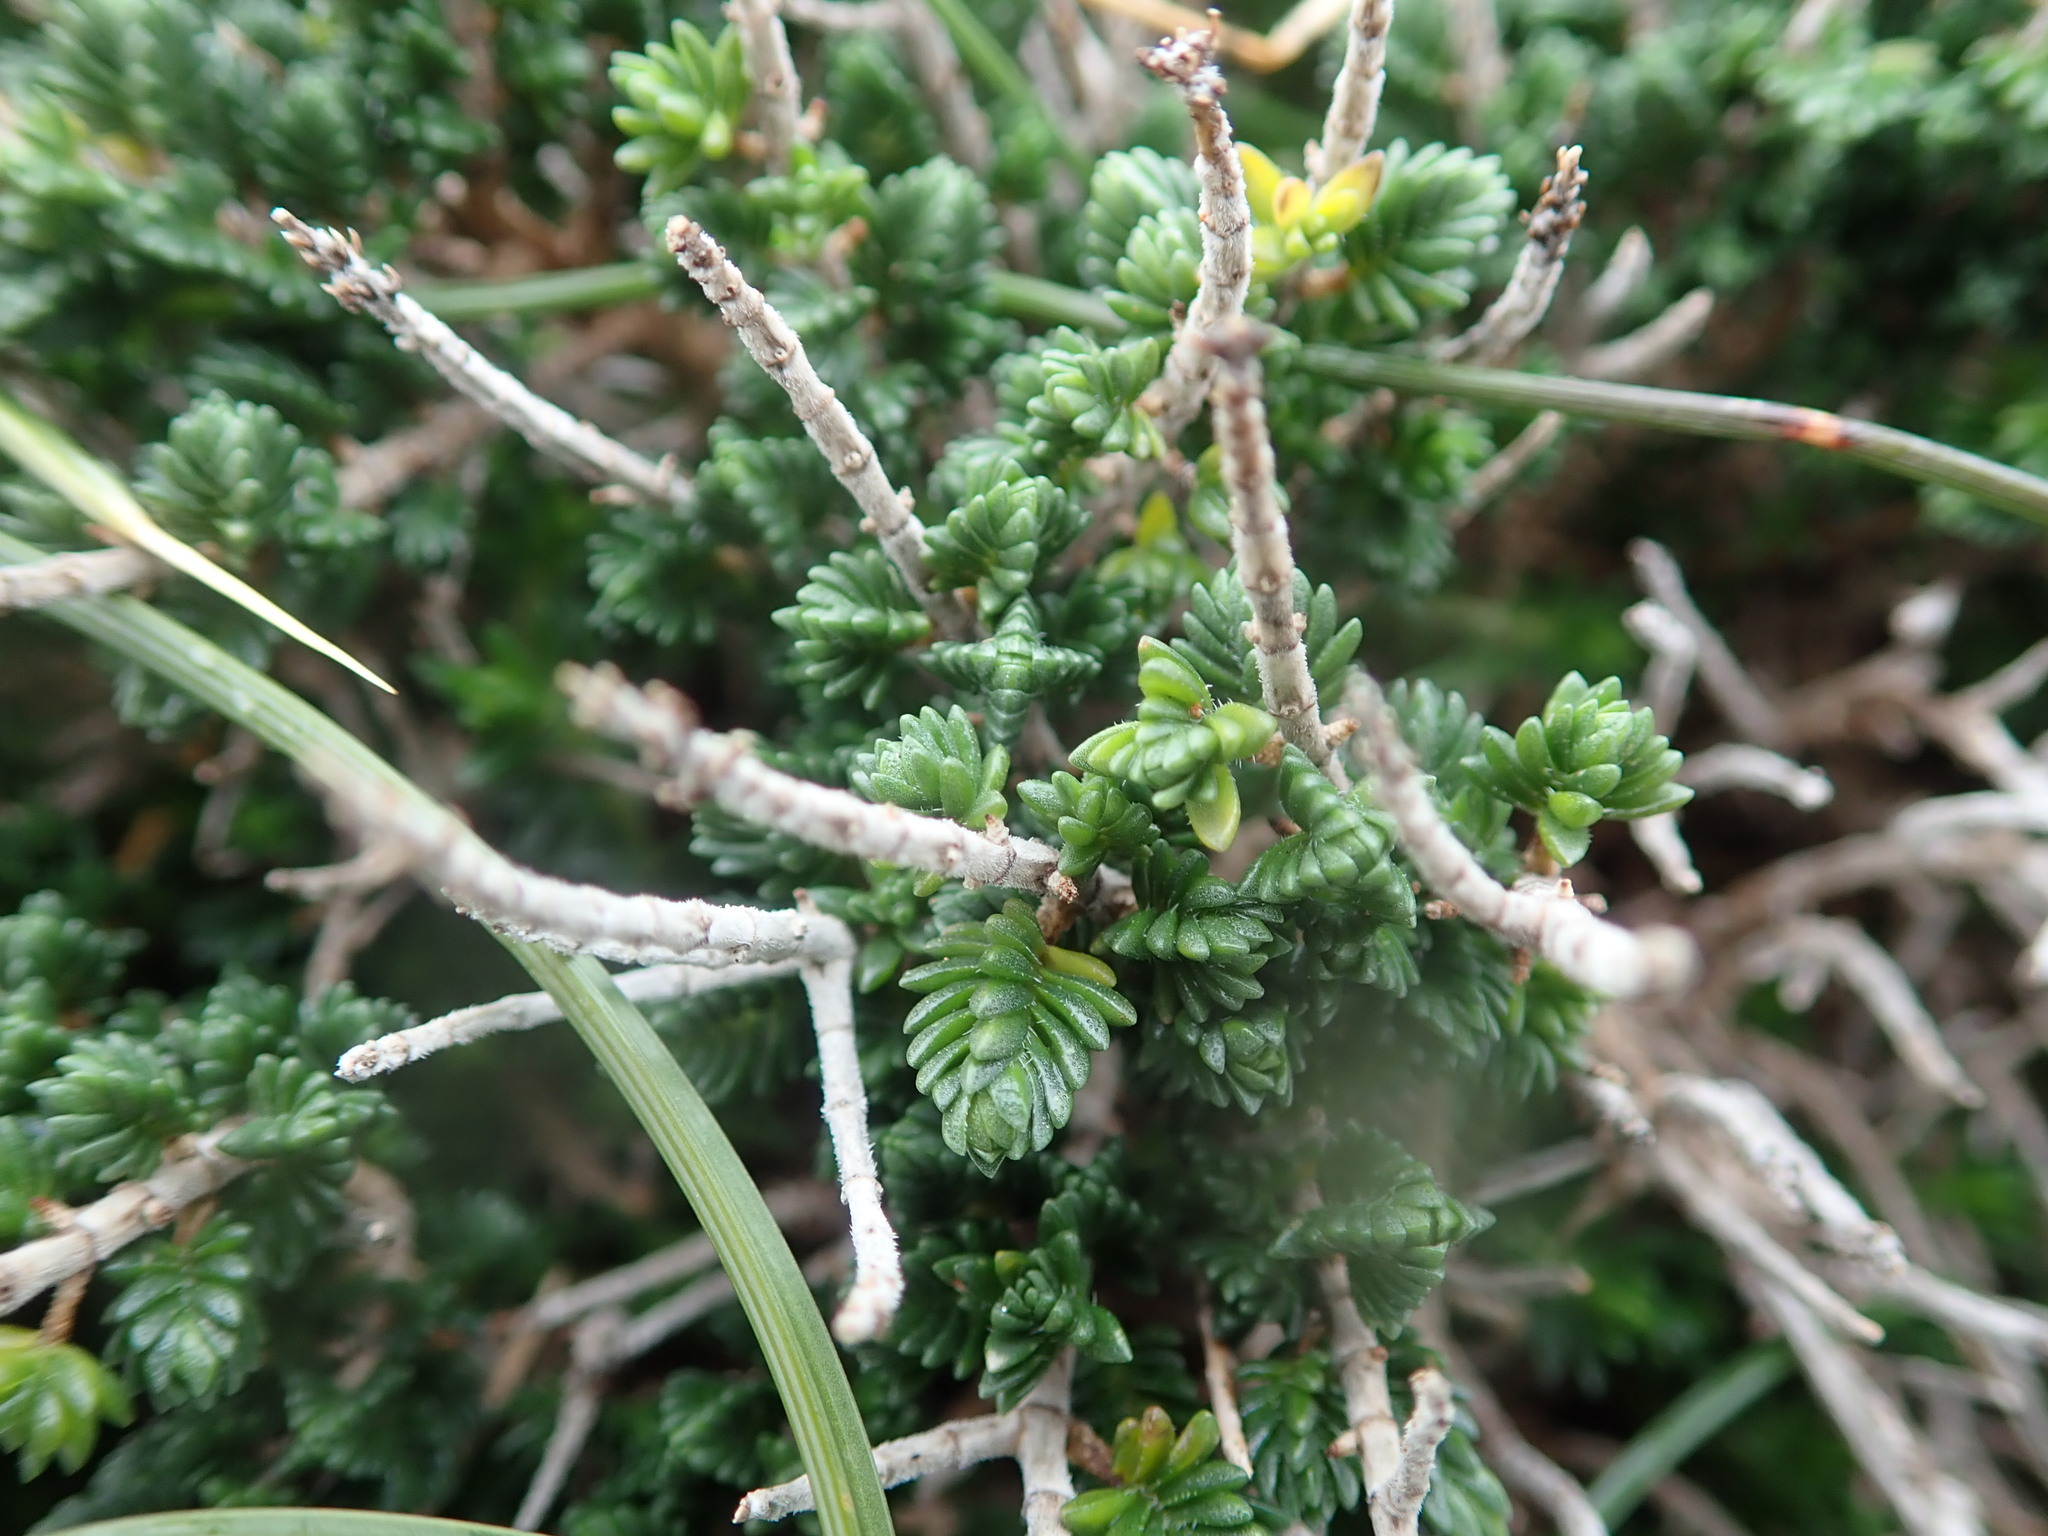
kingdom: Plantae
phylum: Tracheophyta
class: Magnoliopsida
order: Lamiales
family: Lamiaceae
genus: Thymbra
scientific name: Thymbra capitata
